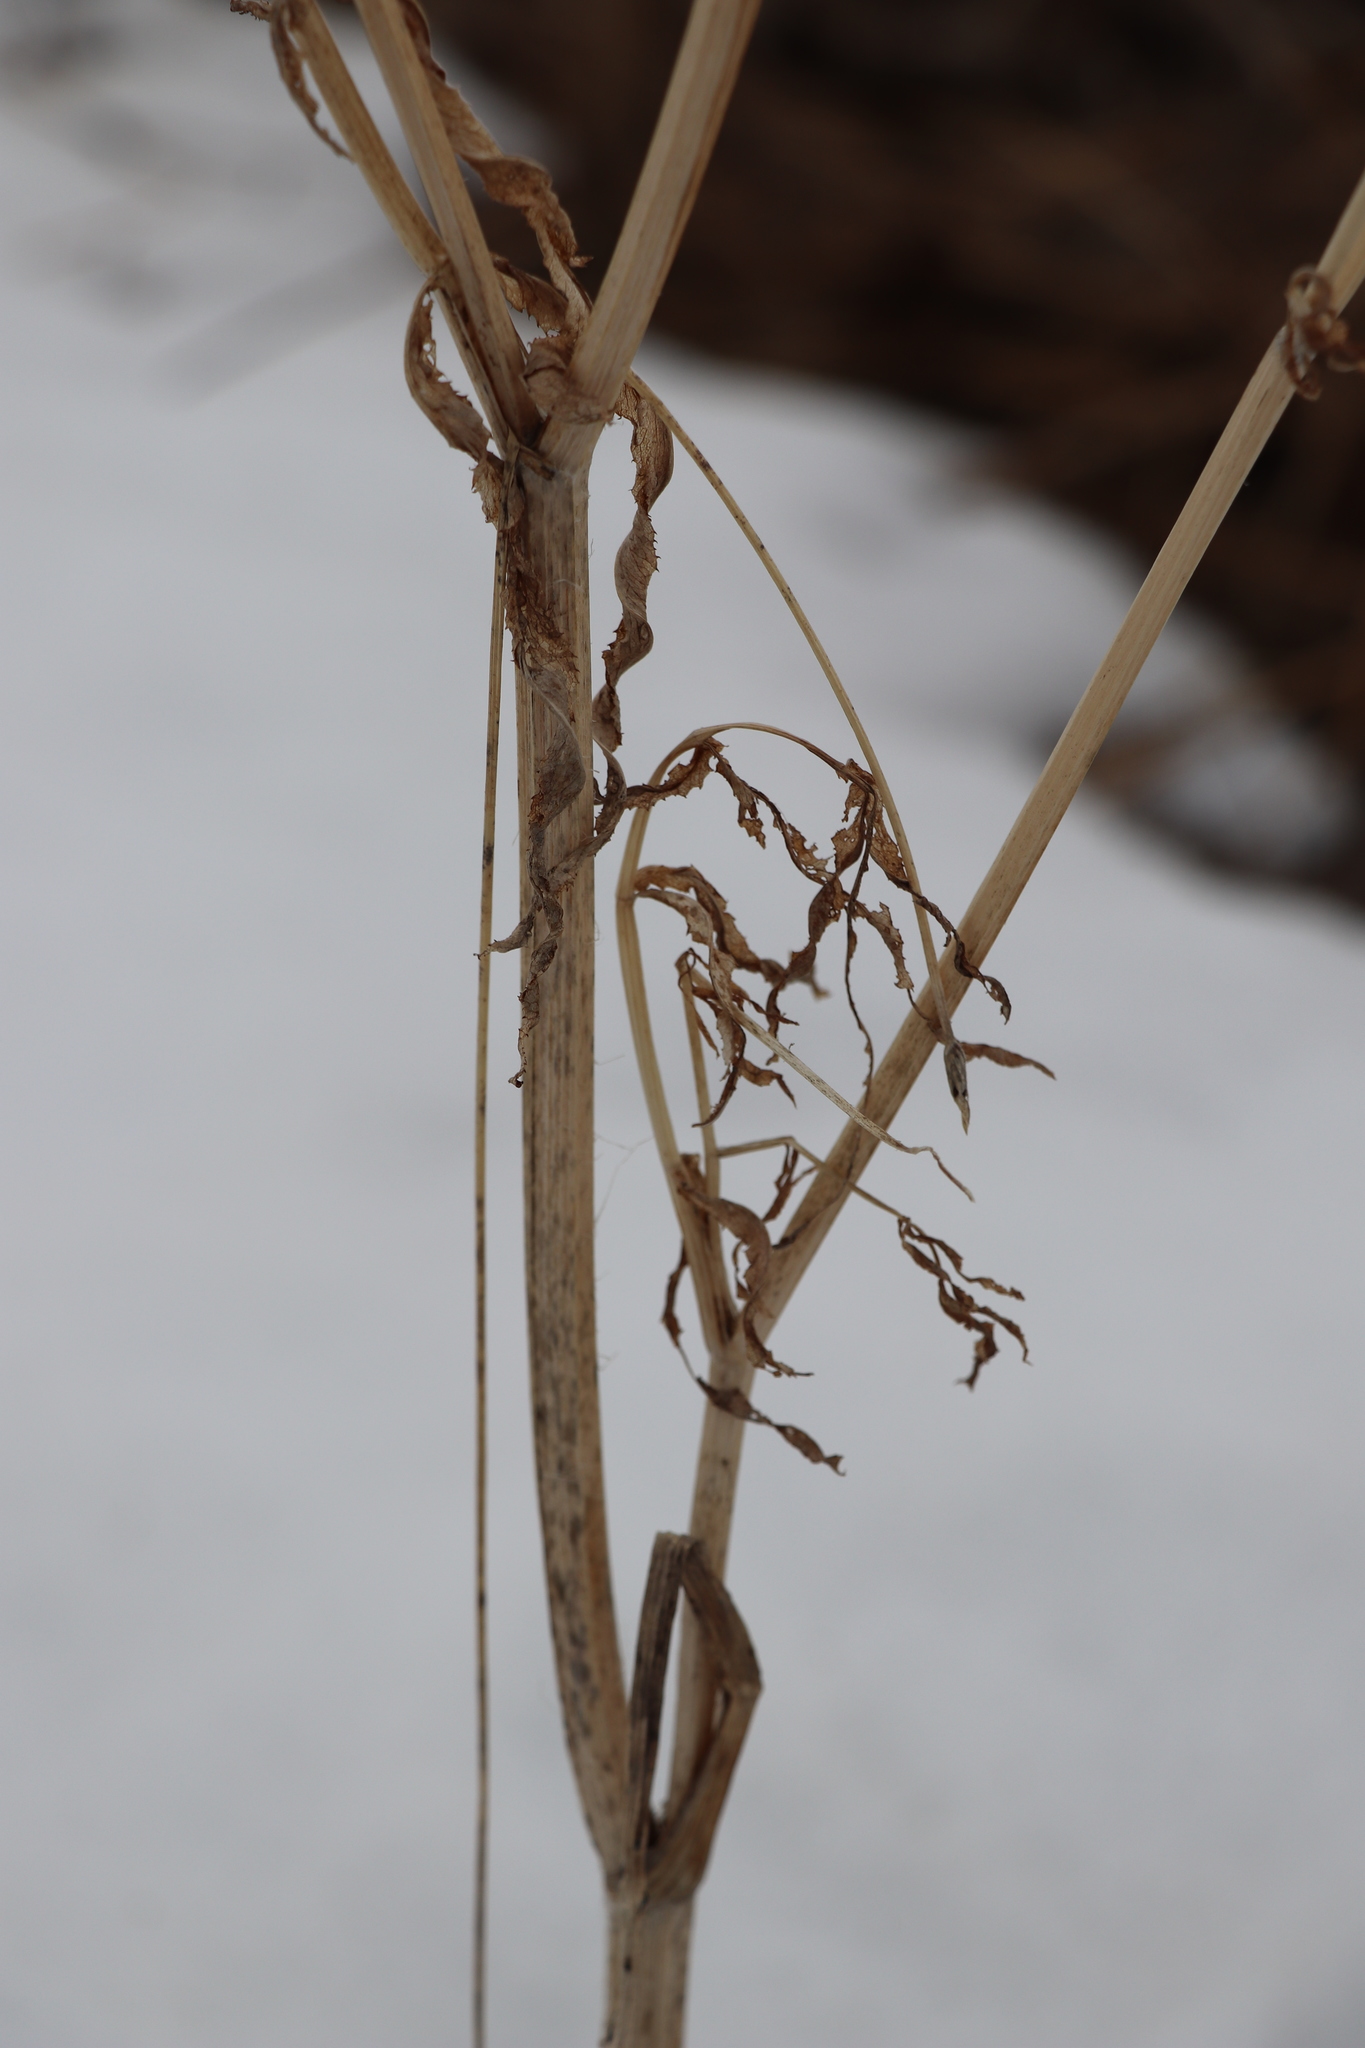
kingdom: Plantae
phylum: Tracheophyta
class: Magnoliopsida
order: Apiales
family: Apiaceae
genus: Cicuta
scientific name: Cicuta virosa
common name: Cowbane
